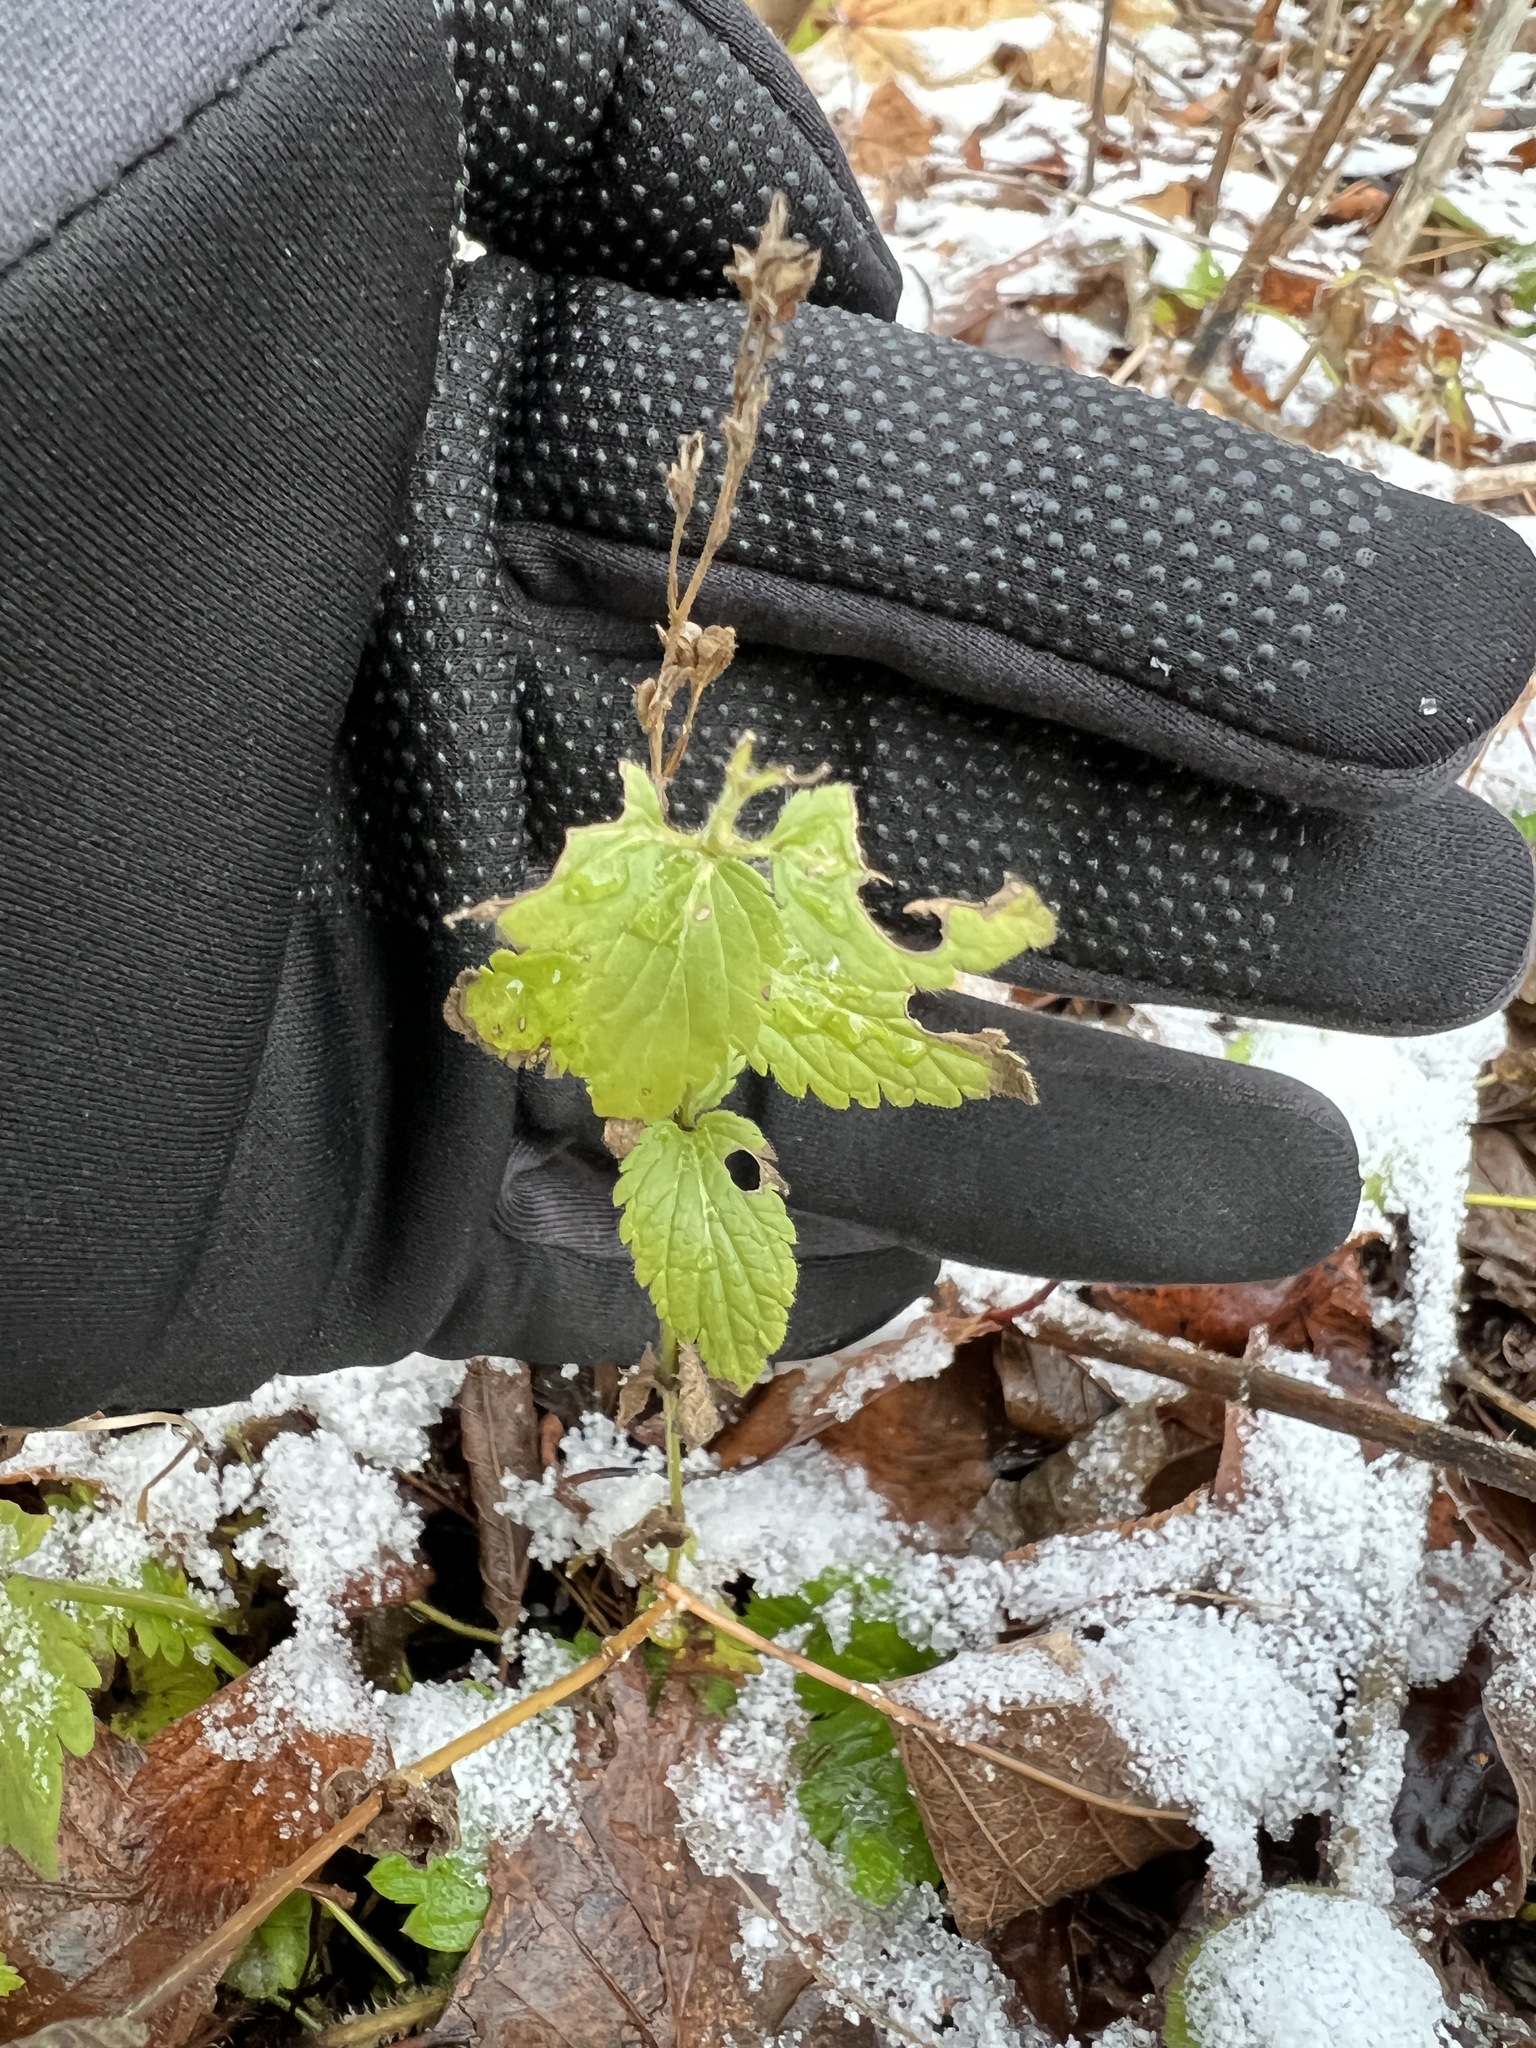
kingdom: Plantae
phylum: Tracheophyta
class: Magnoliopsida
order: Lamiales
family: Plantaginaceae
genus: Veronica
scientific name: Veronica chamaedrys
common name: Germander speedwell
